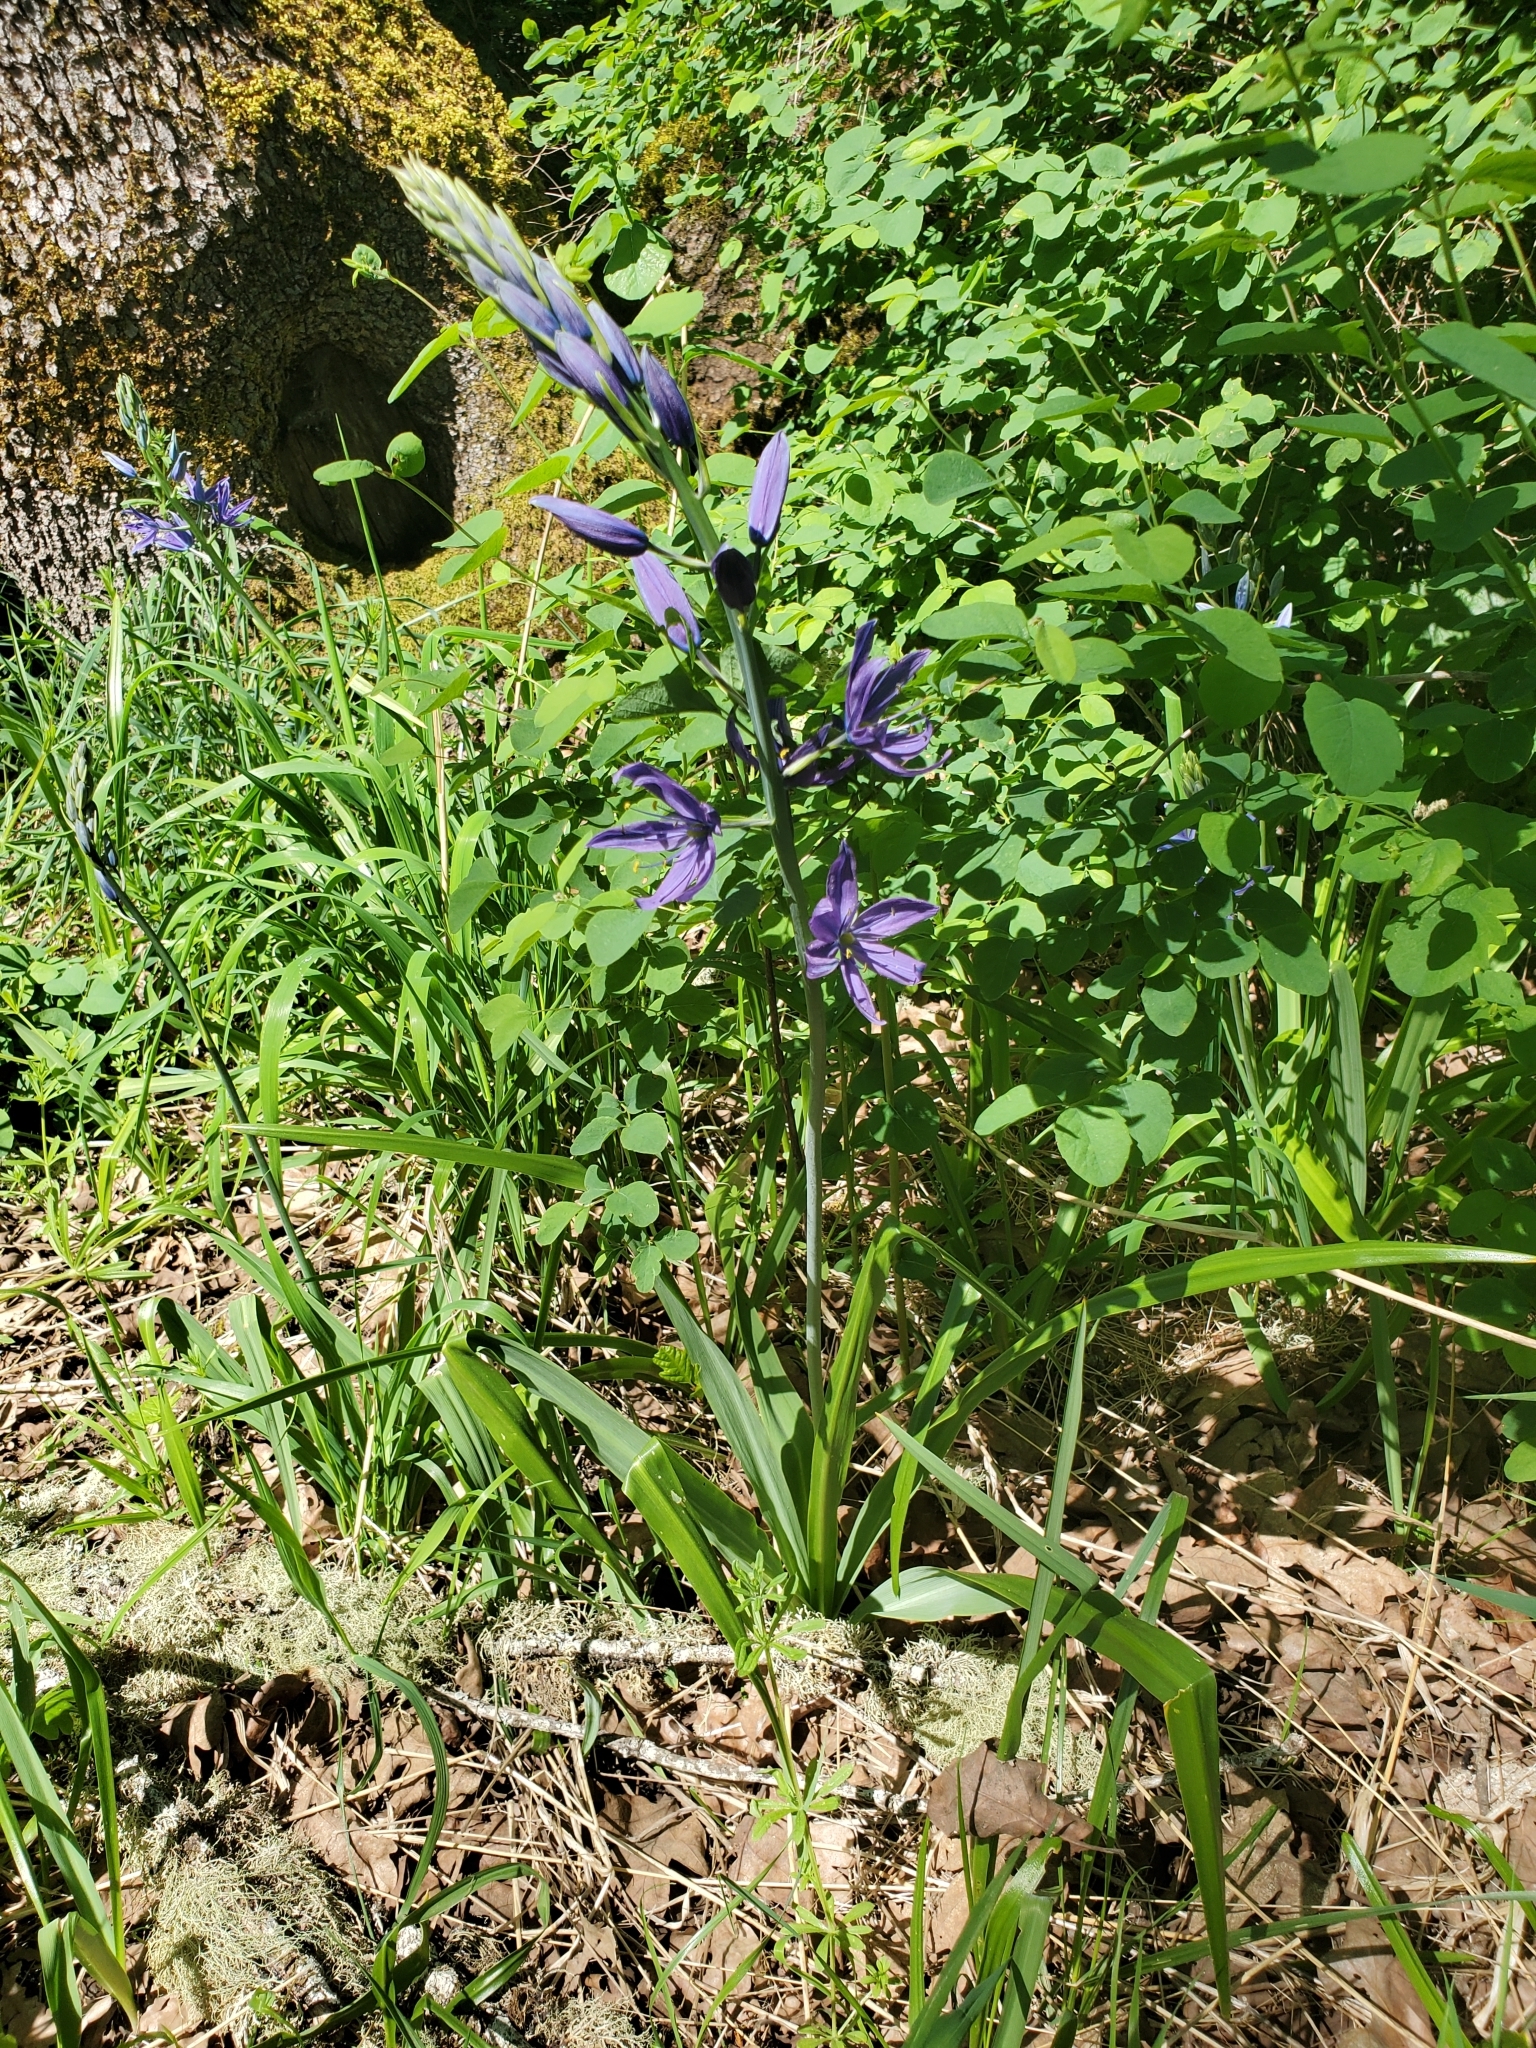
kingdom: Plantae
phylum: Tracheophyta
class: Liliopsida
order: Asparagales
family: Asparagaceae
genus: Camassia
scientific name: Camassia leichtlinii
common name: Leichtlin's camas
